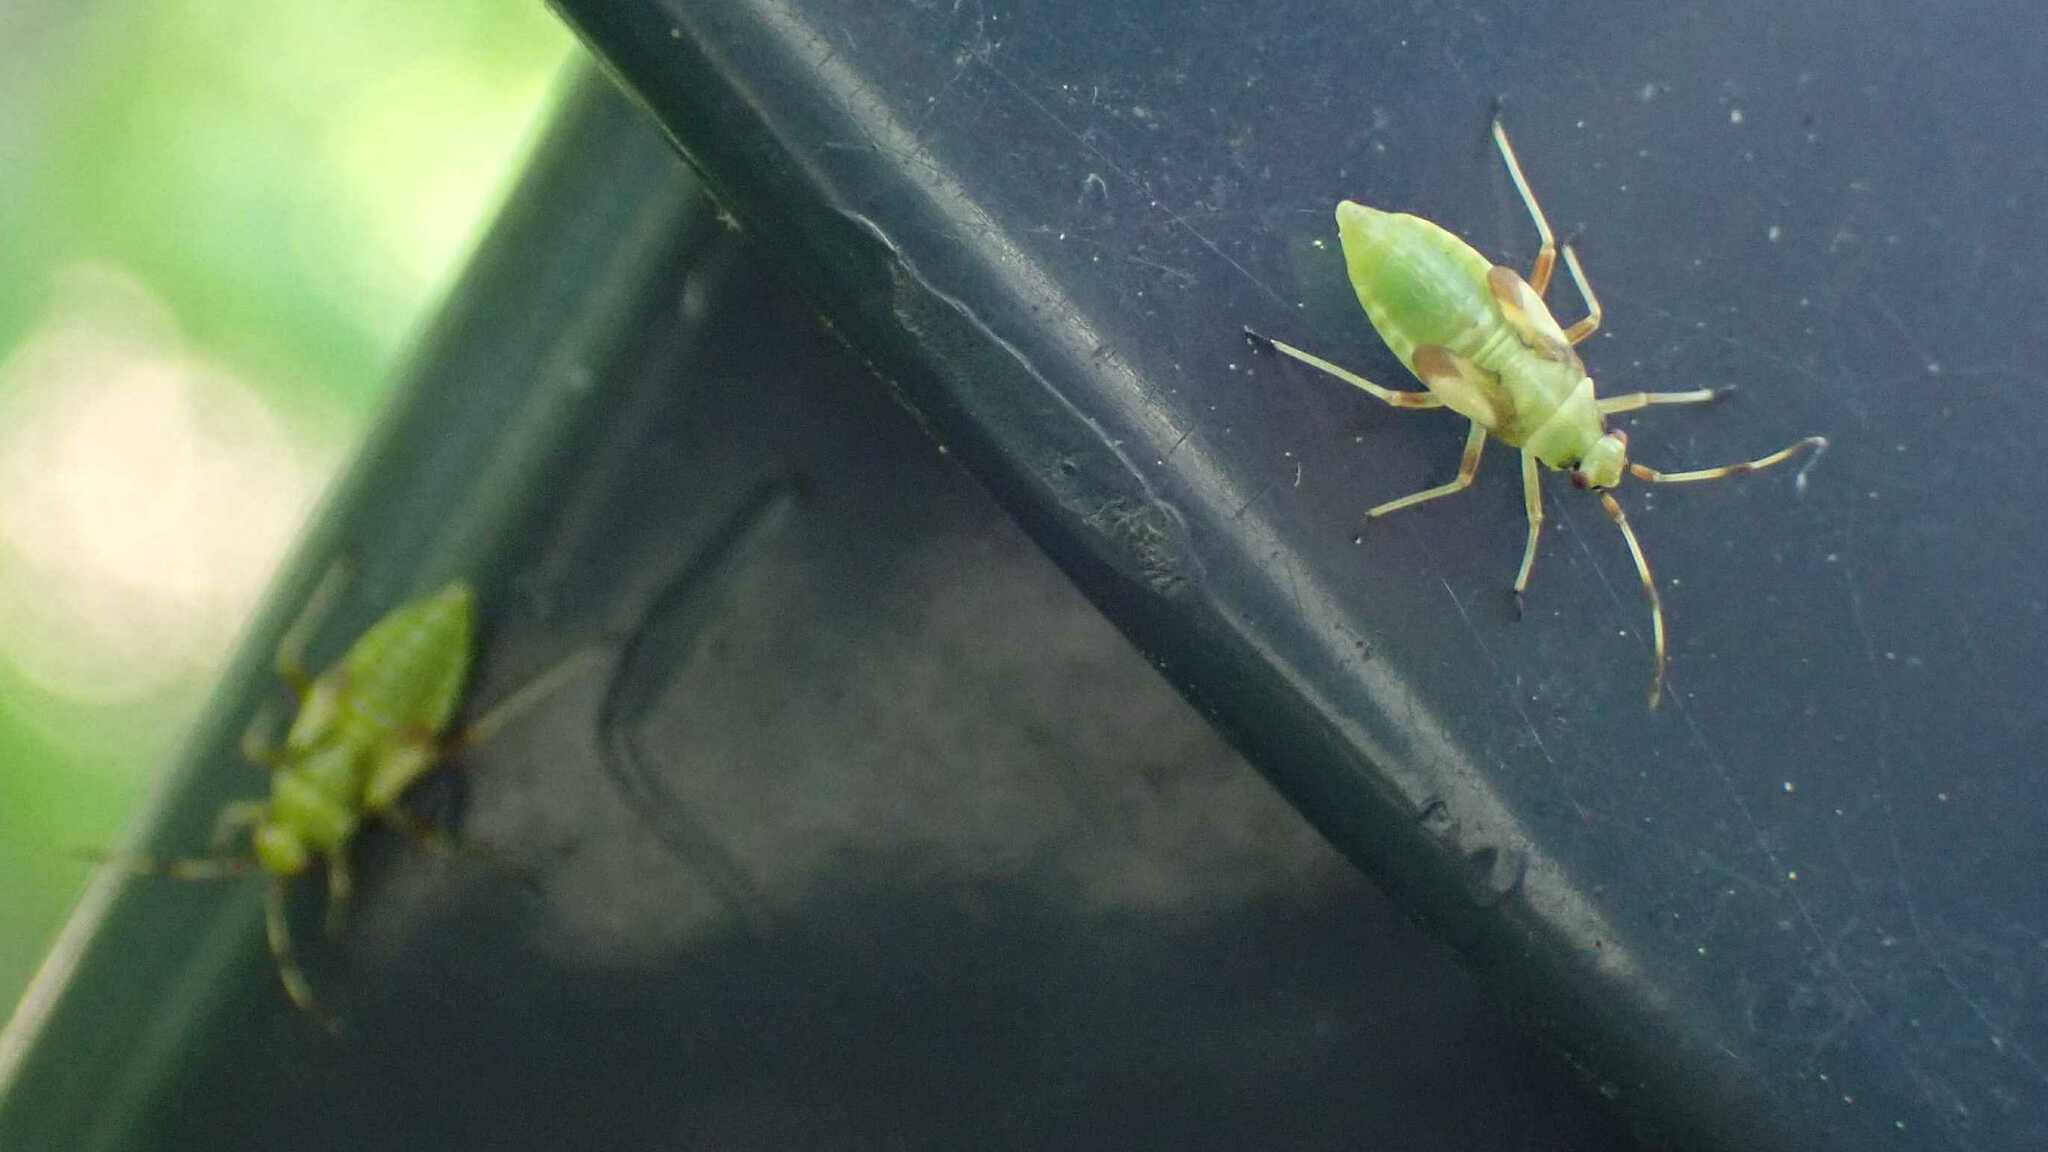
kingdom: Animalia
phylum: Arthropoda
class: Insecta
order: Hemiptera
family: Miridae
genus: Dryophilocoris
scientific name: Dryophilocoris flavoquadrimaculatus
